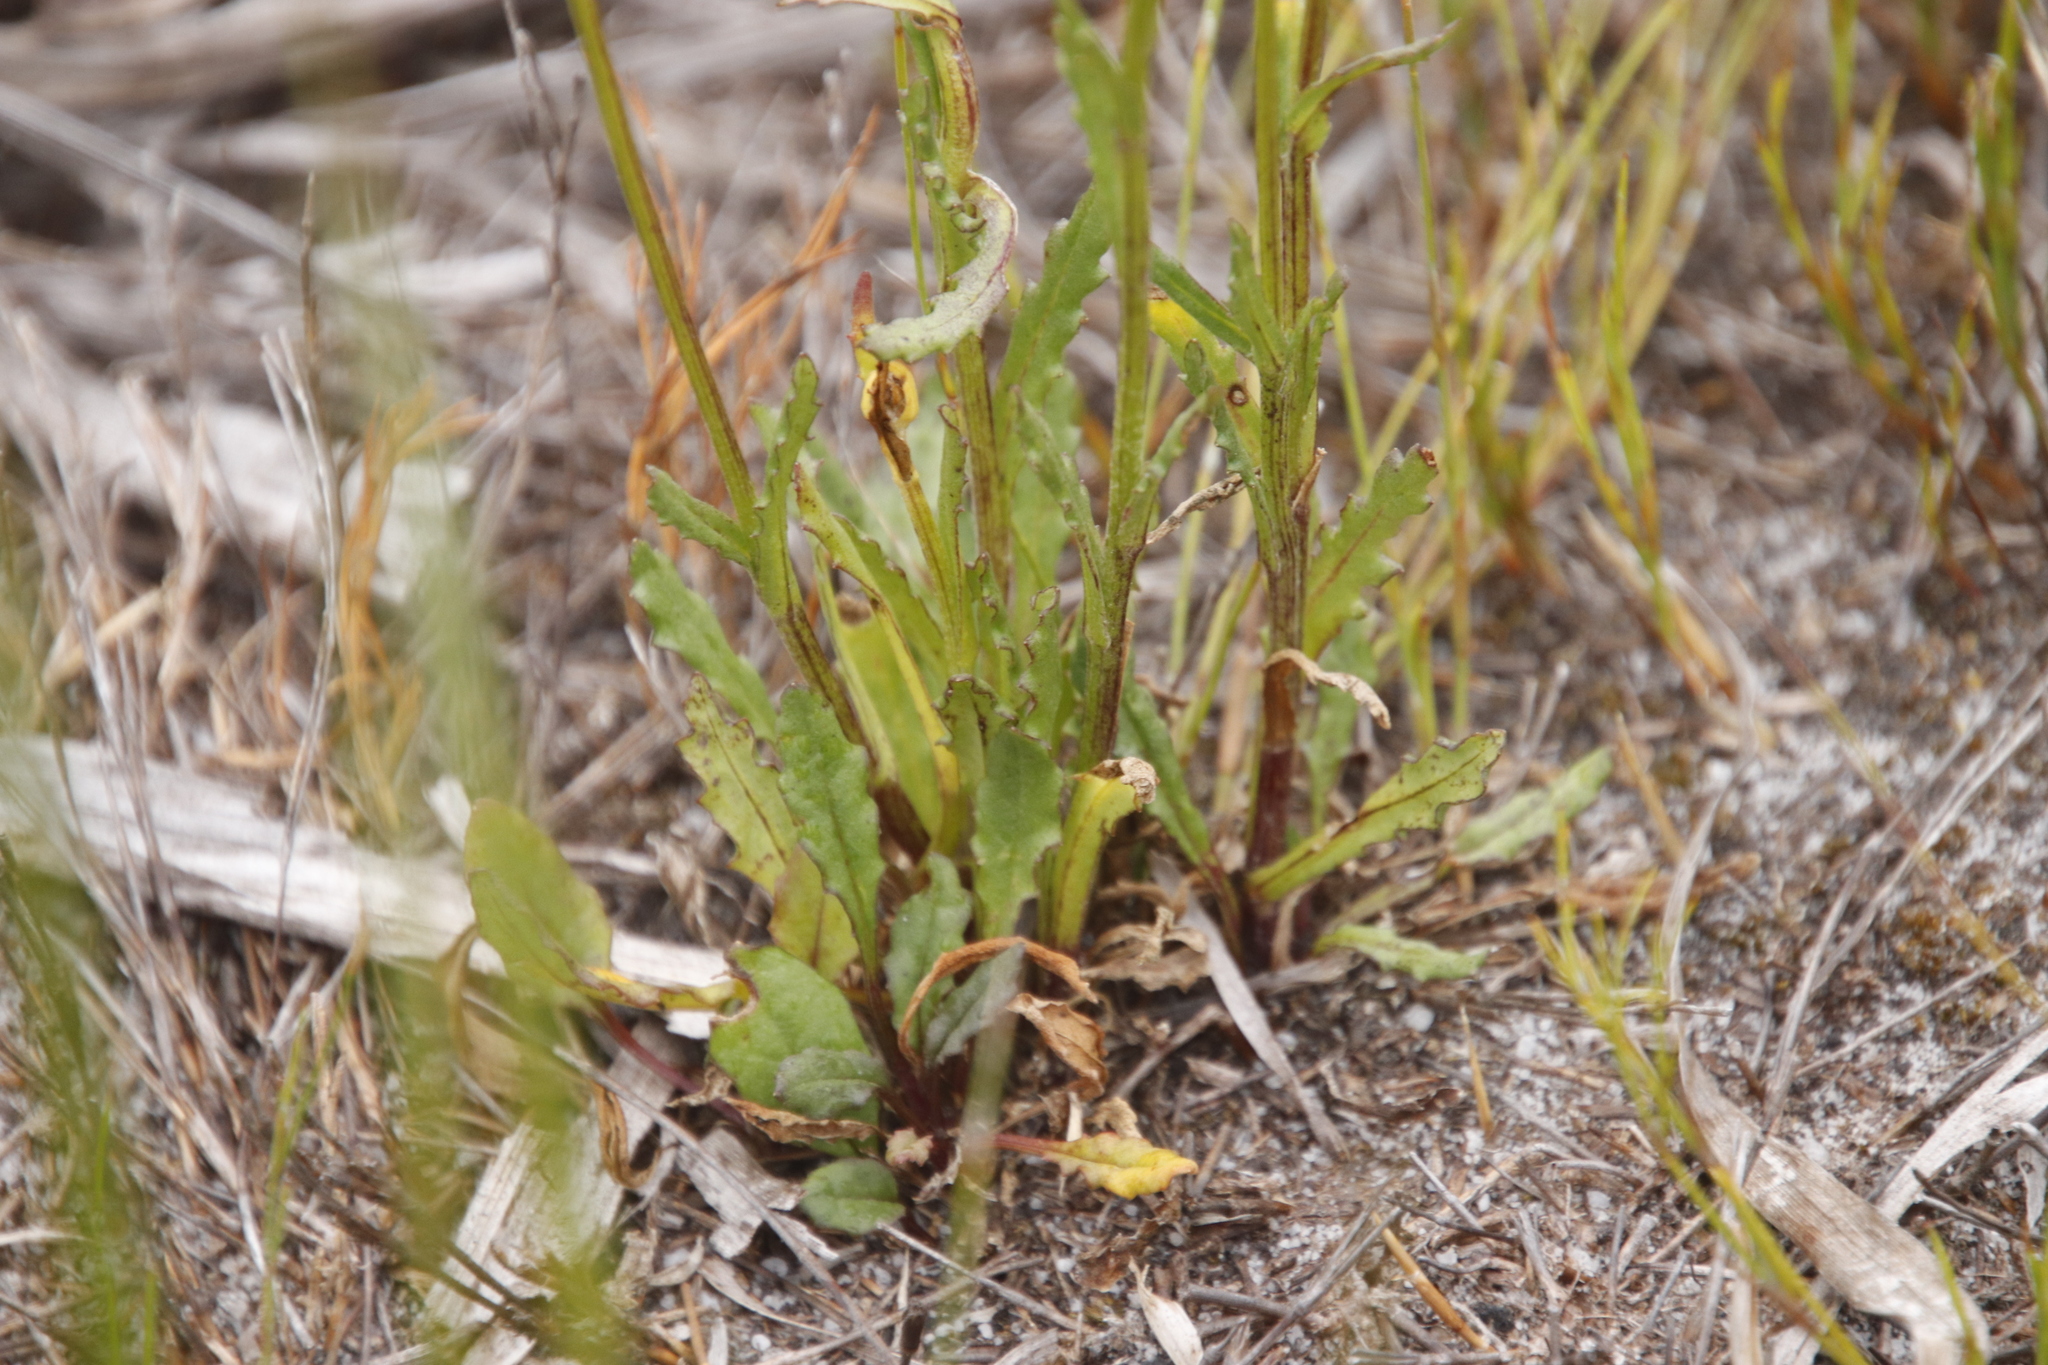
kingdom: Plantae
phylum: Tracheophyta
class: Magnoliopsida
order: Asterales
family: Asteraceae
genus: Senecio
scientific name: Senecio crispus
